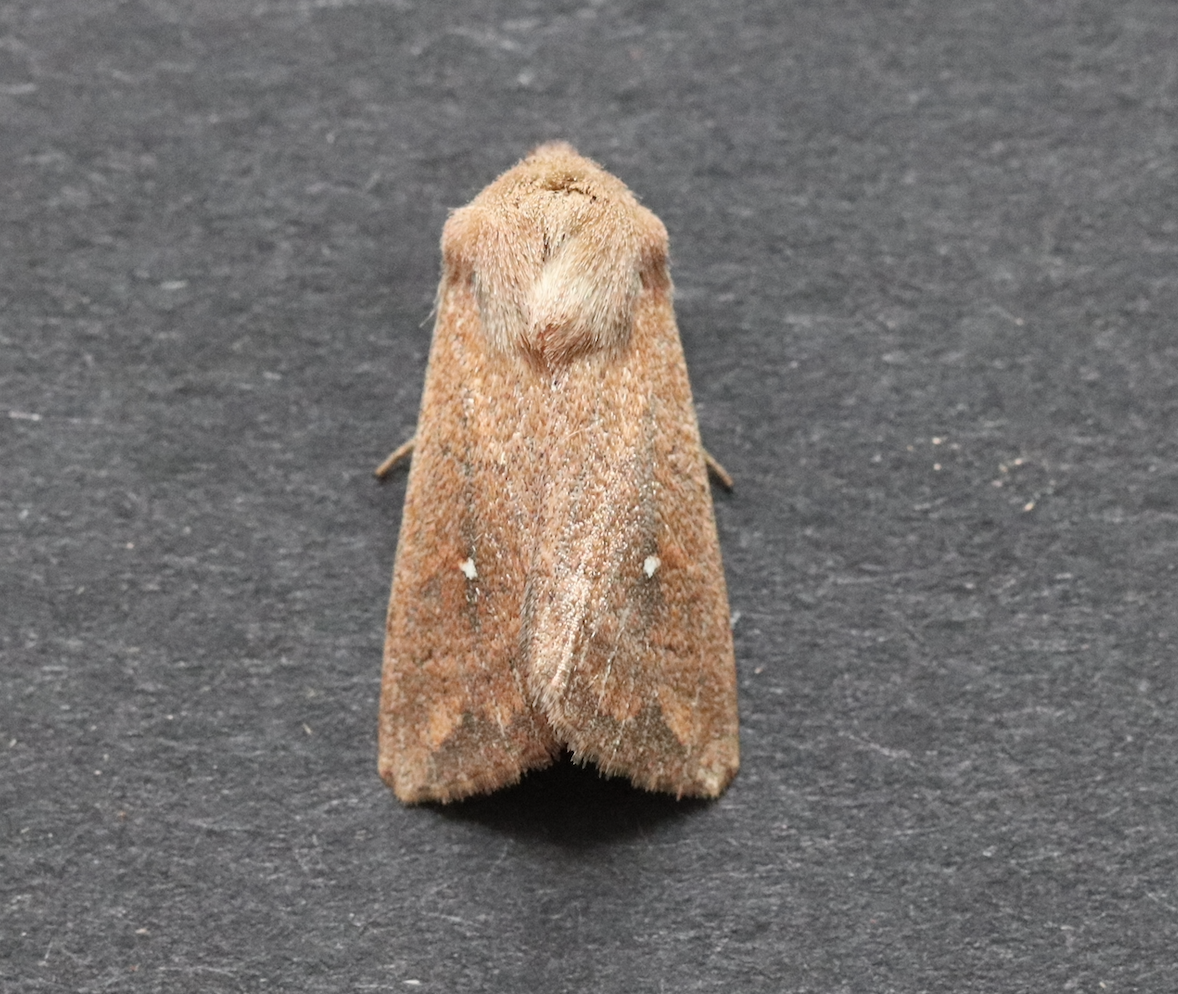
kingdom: Animalia
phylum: Arthropoda
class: Insecta
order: Lepidoptera
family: Noctuidae
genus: Mythimna
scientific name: Mythimna albipuncta
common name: White-point
